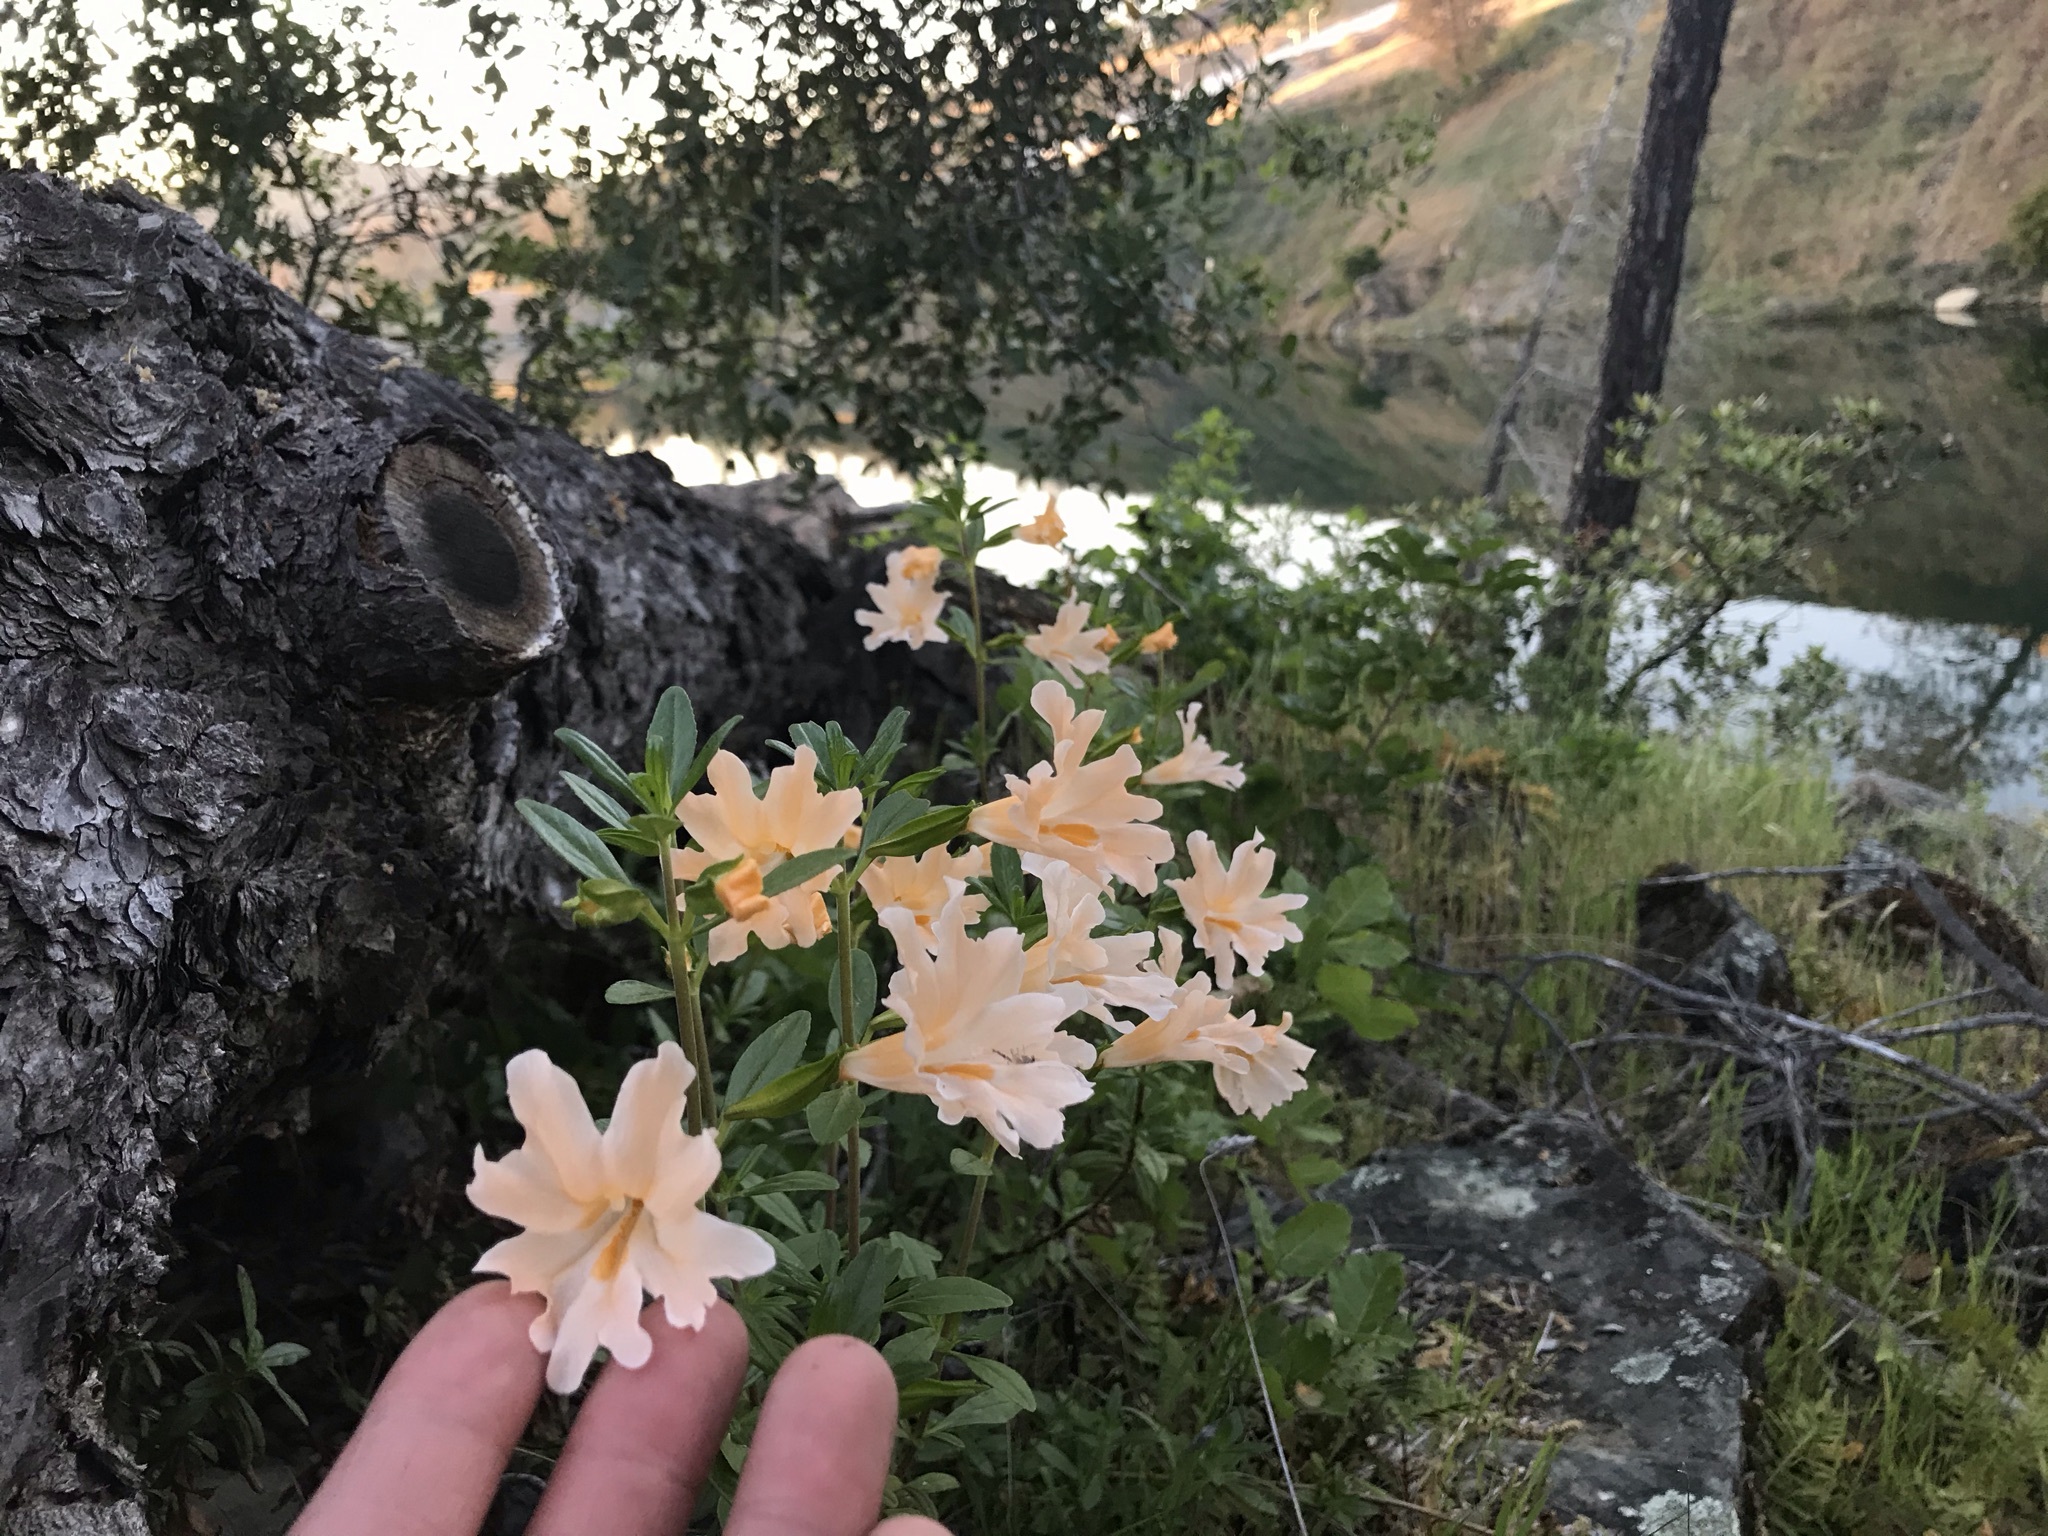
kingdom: Plantae
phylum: Tracheophyta
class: Magnoliopsida
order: Lamiales
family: Phrymaceae
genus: Diplacus
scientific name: Diplacus grandiflorus
